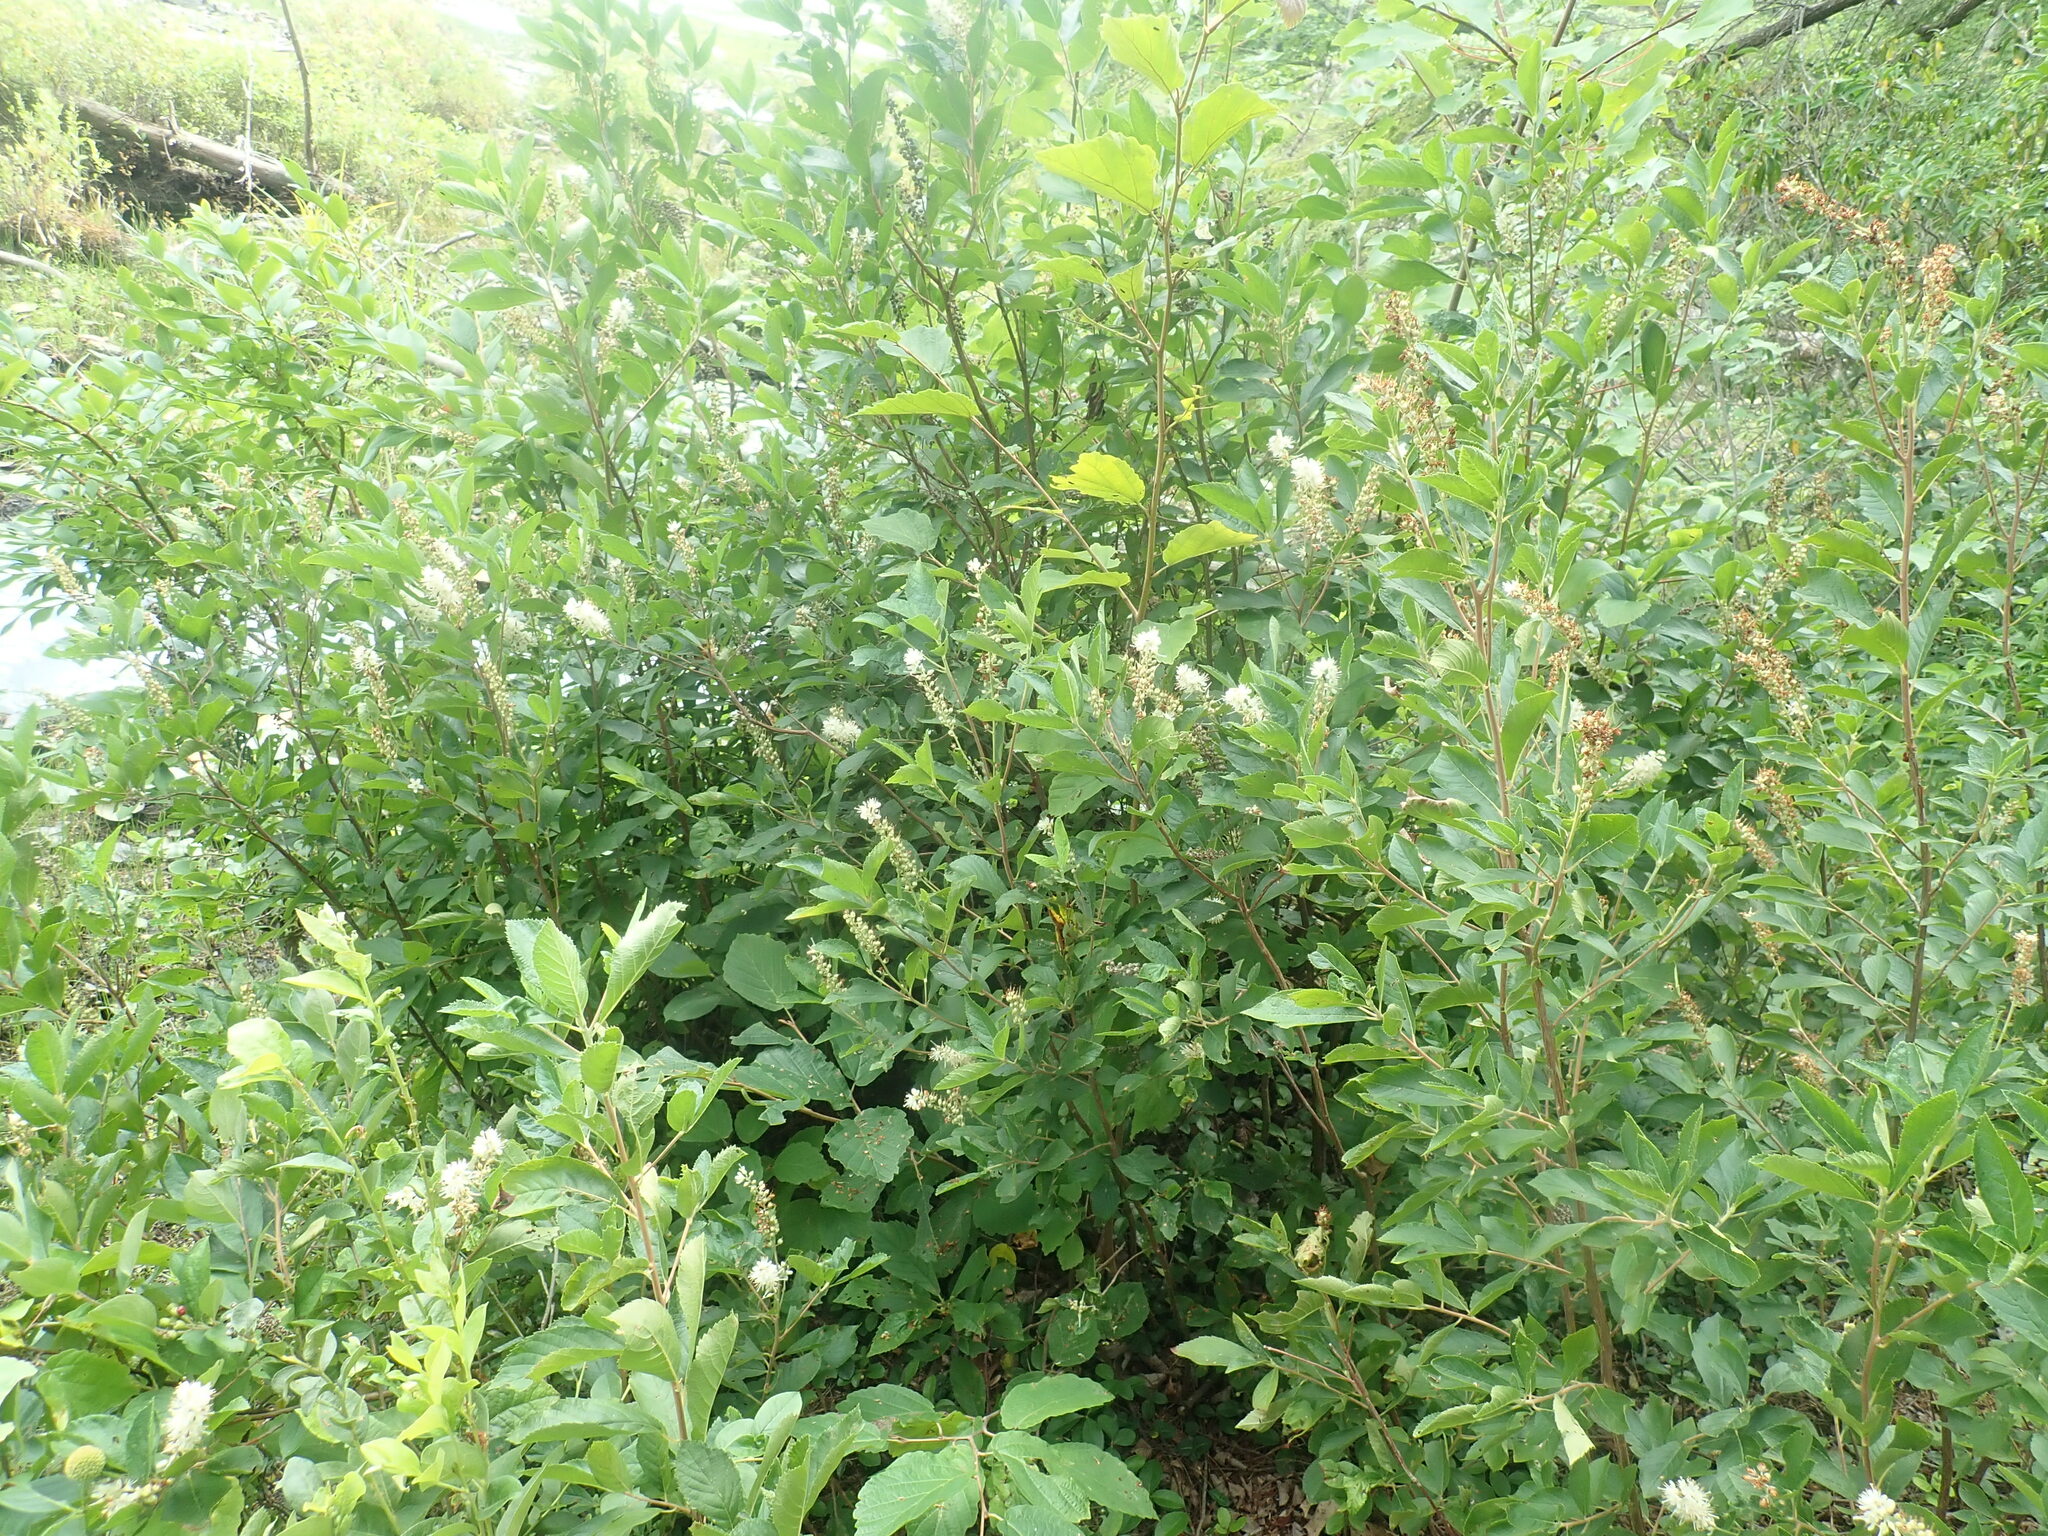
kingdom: Plantae
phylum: Tracheophyta
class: Magnoliopsida
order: Ericales
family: Clethraceae
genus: Clethra
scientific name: Clethra alnifolia
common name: Sweet pepperbush
